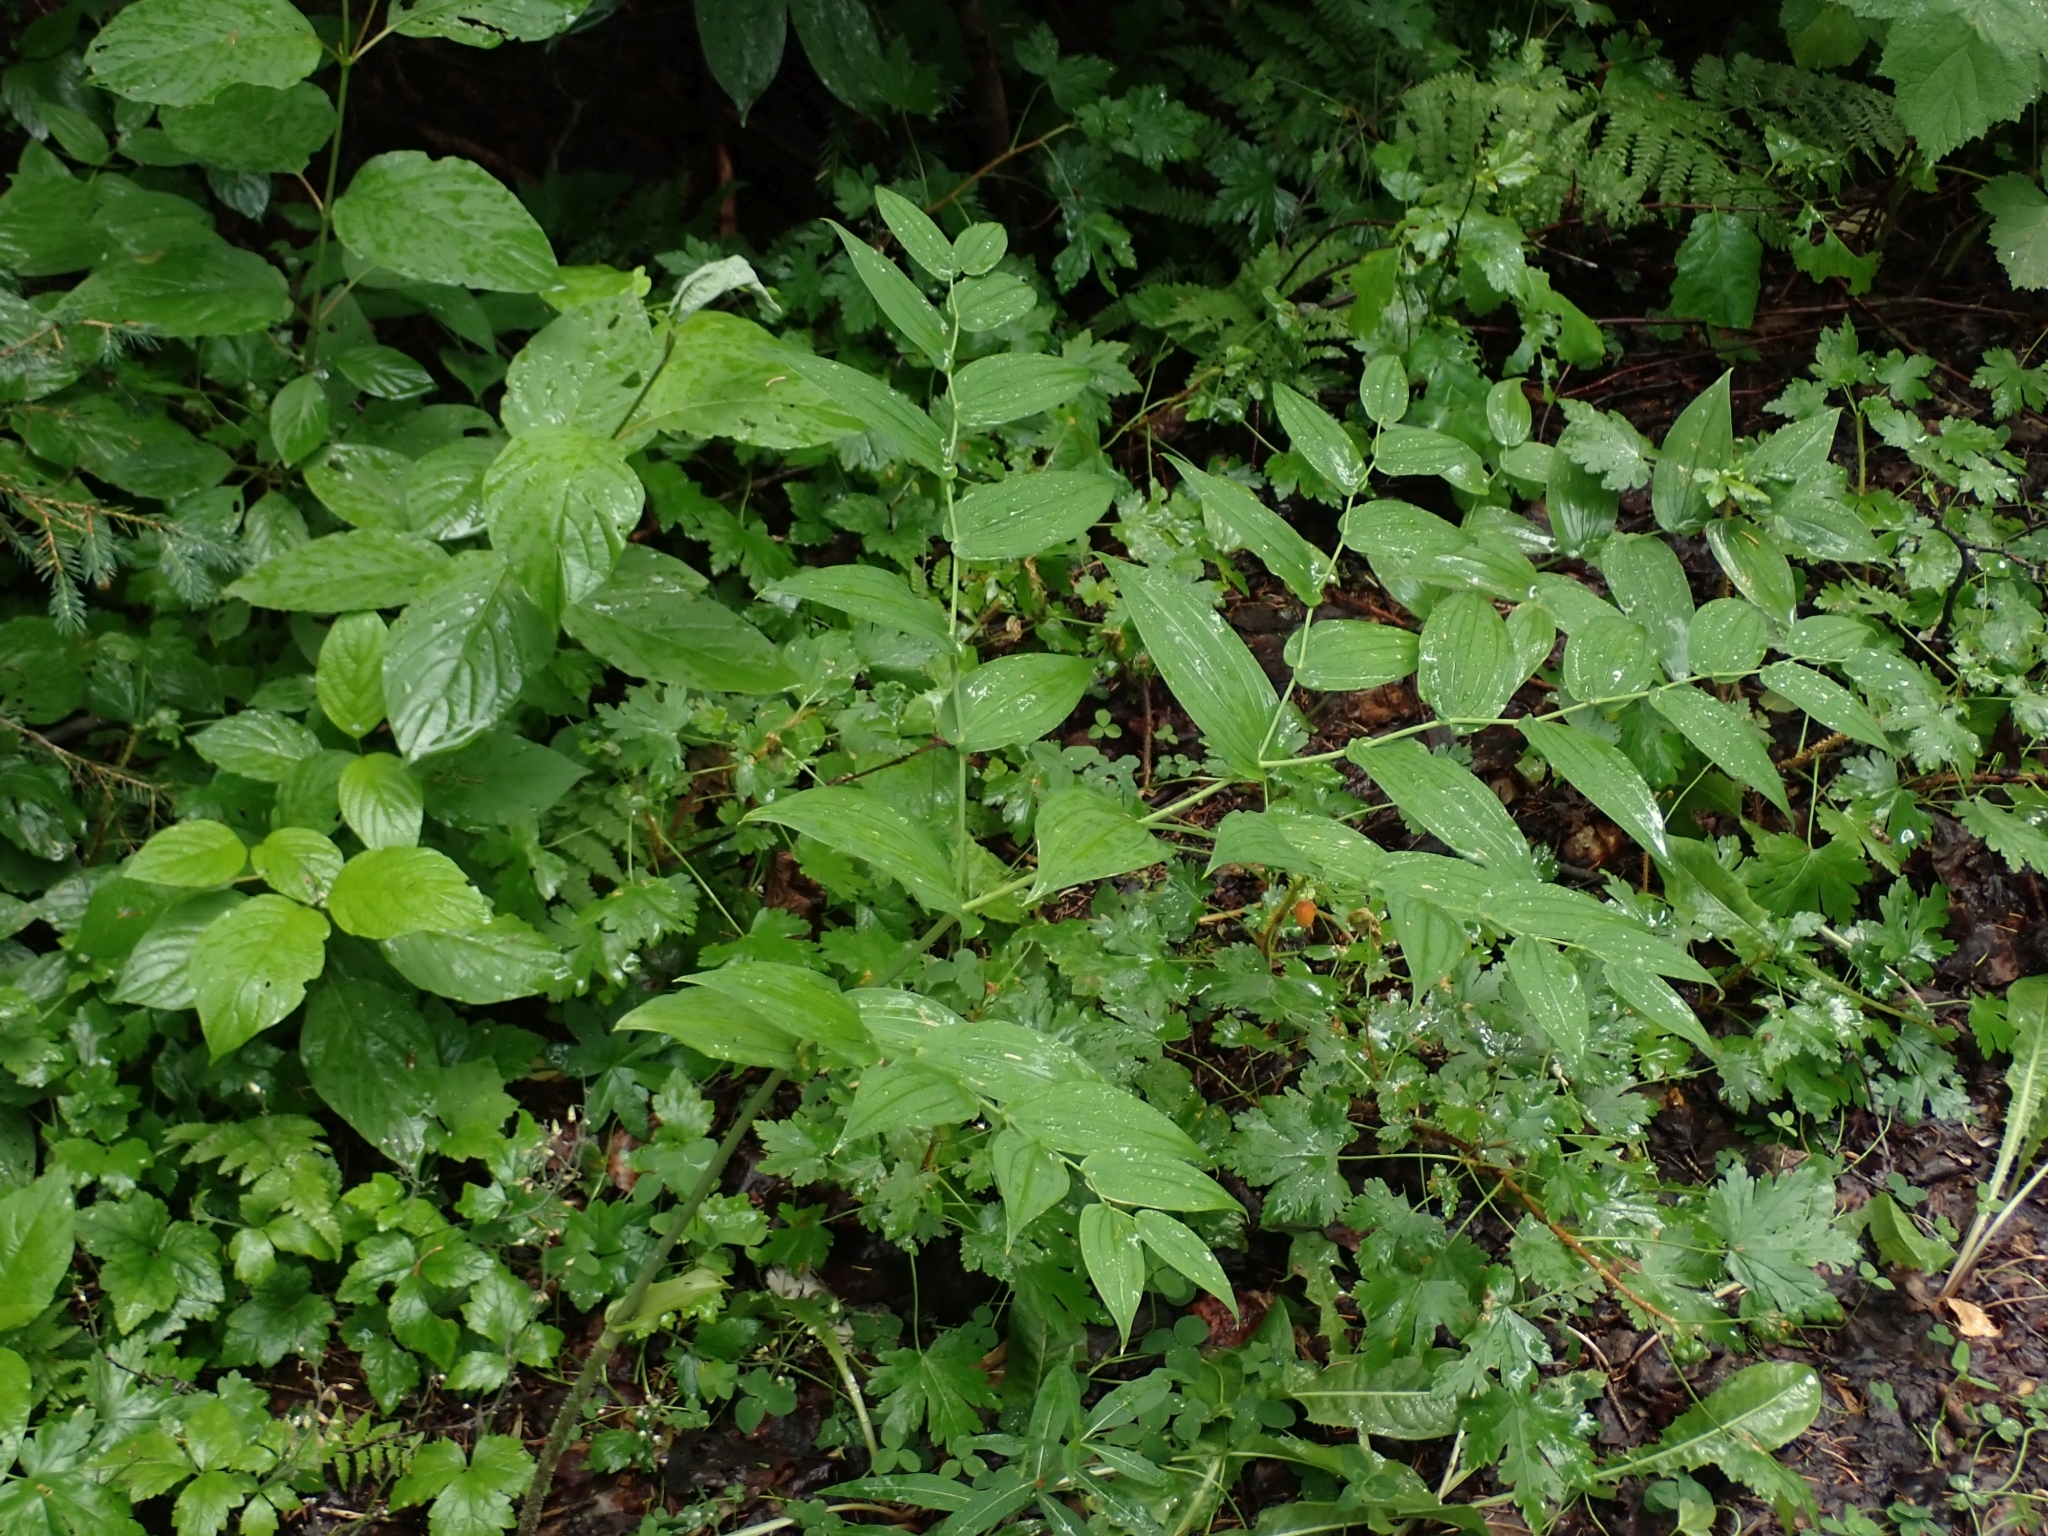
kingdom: Plantae
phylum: Tracheophyta
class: Liliopsida
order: Liliales
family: Liliaceae
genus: Streptopus
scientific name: Streptopus amplexifolius
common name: Clasp twisted stalk
